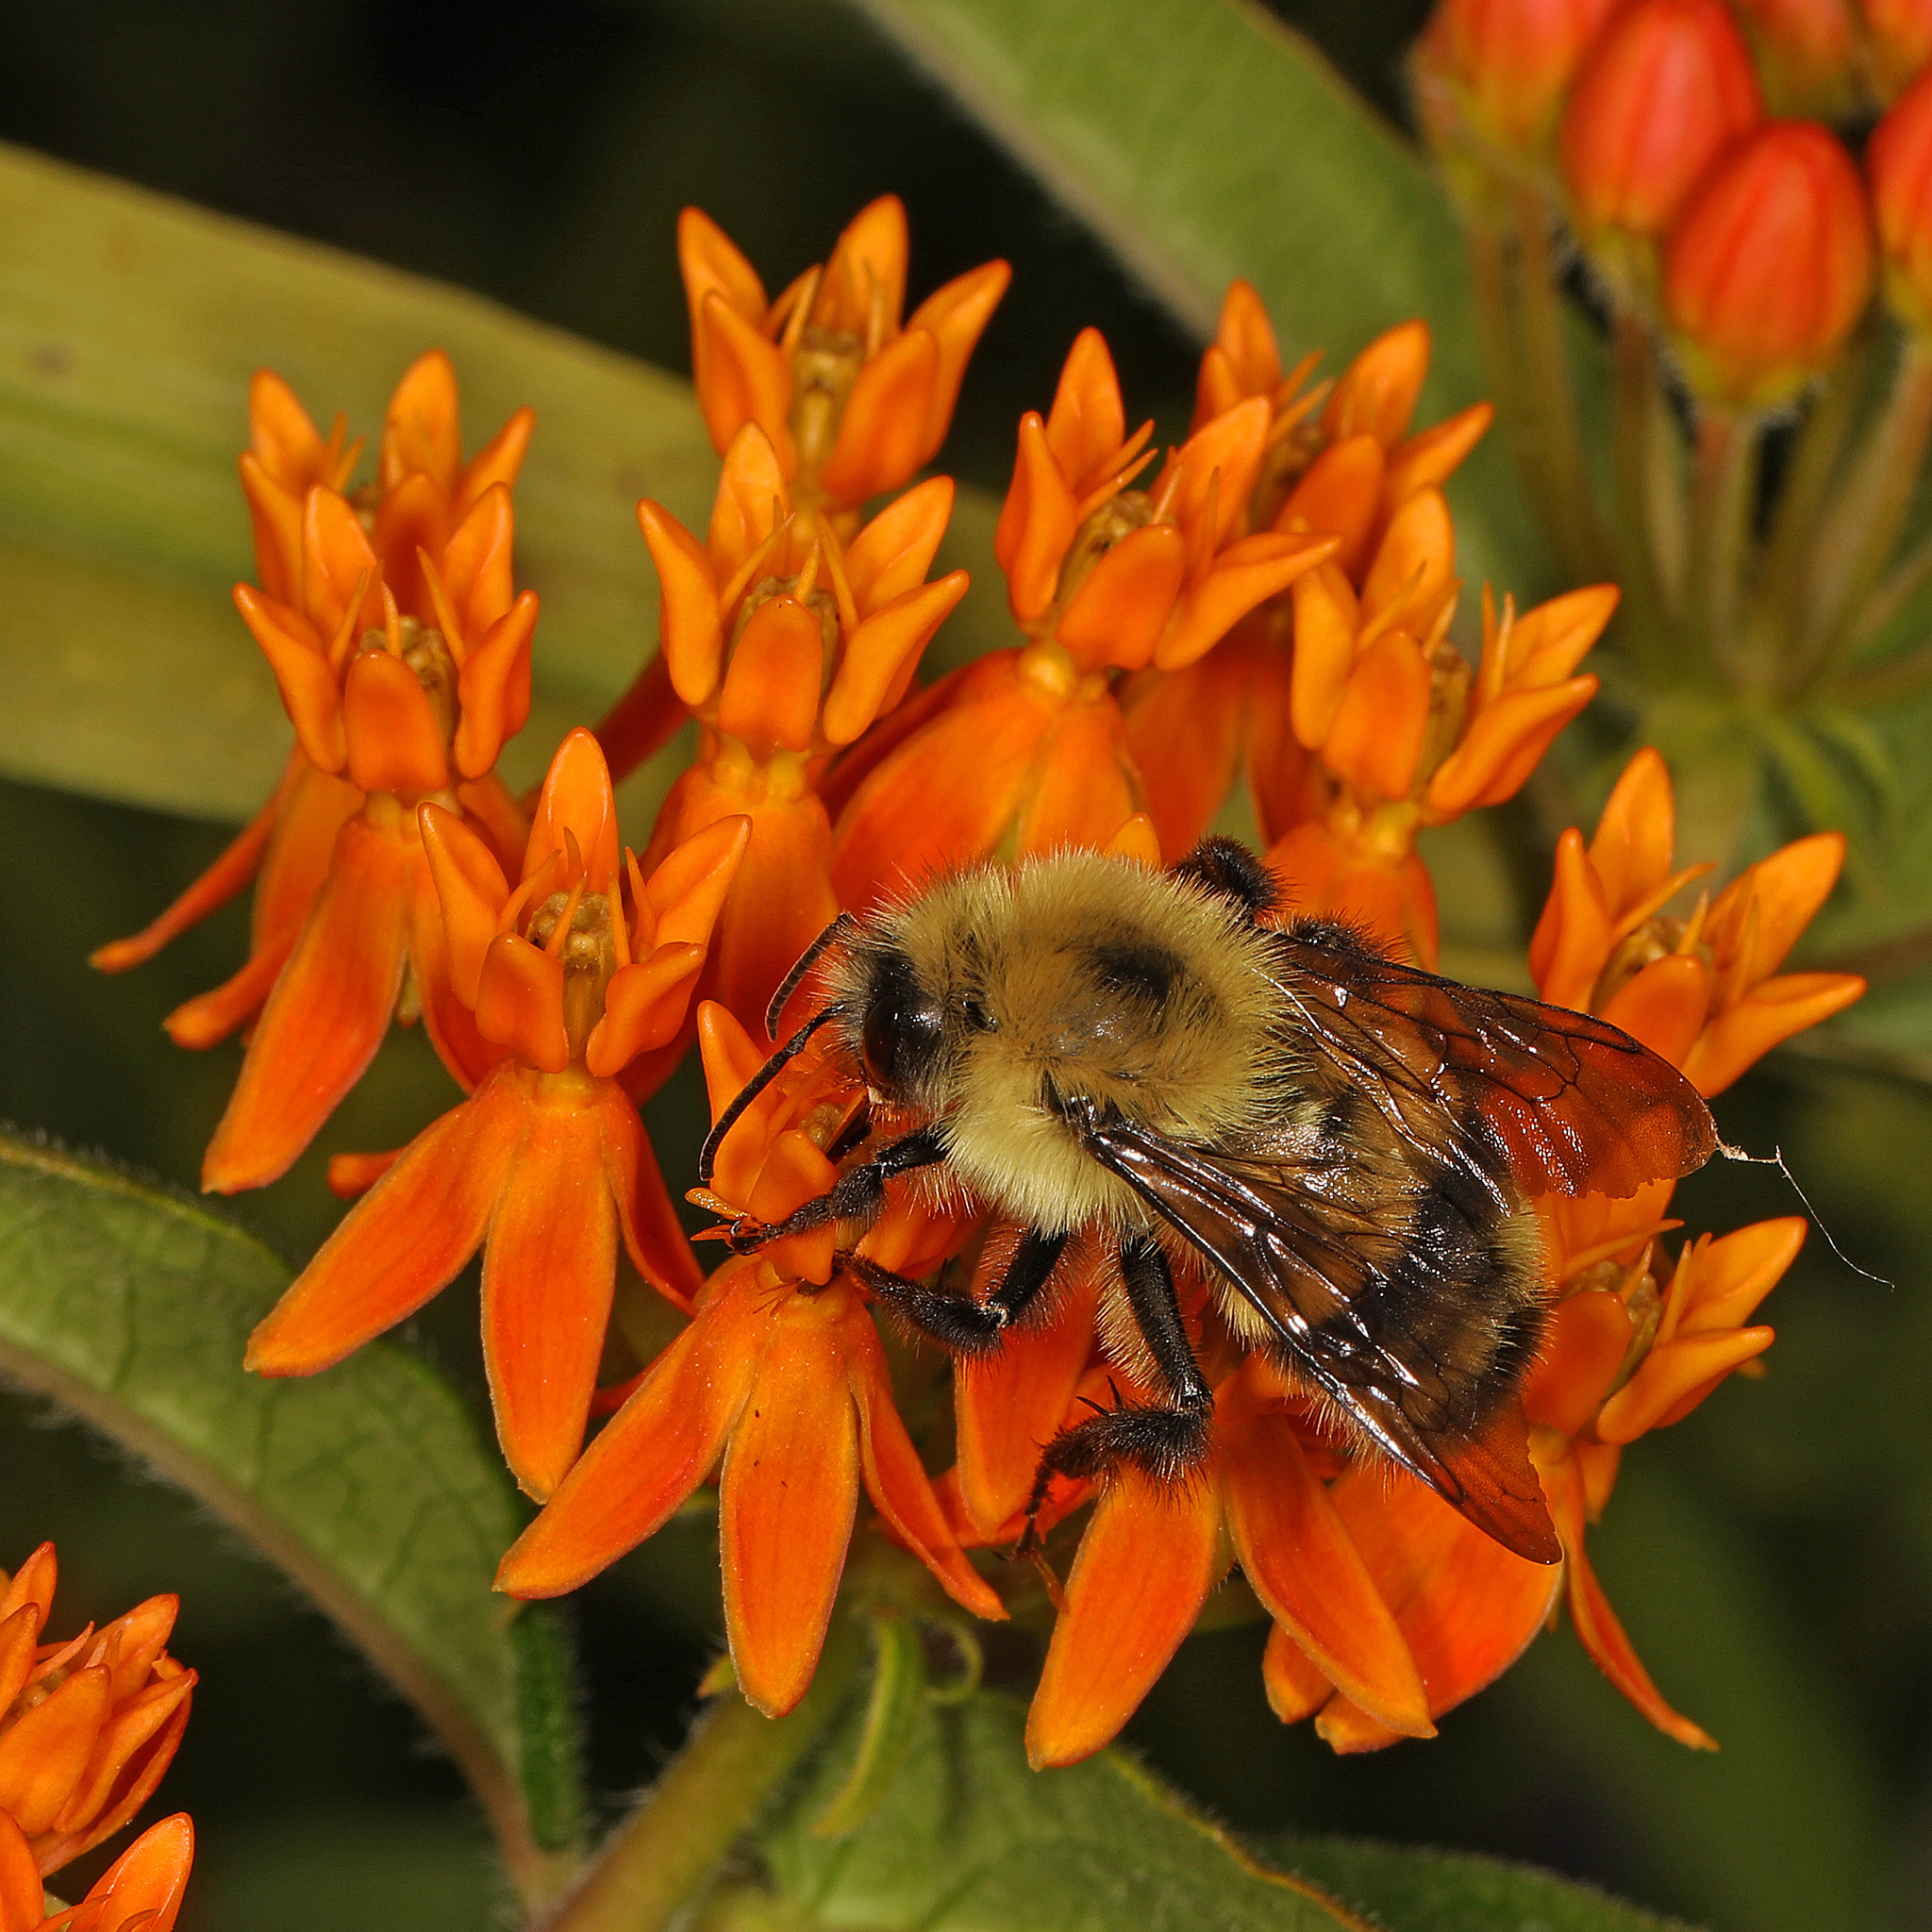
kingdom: Animalia
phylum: Arthropoda
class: Insecta
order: Hymenoptera
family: Apidae
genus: Bombus
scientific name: Bombus bimaculatus
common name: Two-spotted bumble bee
